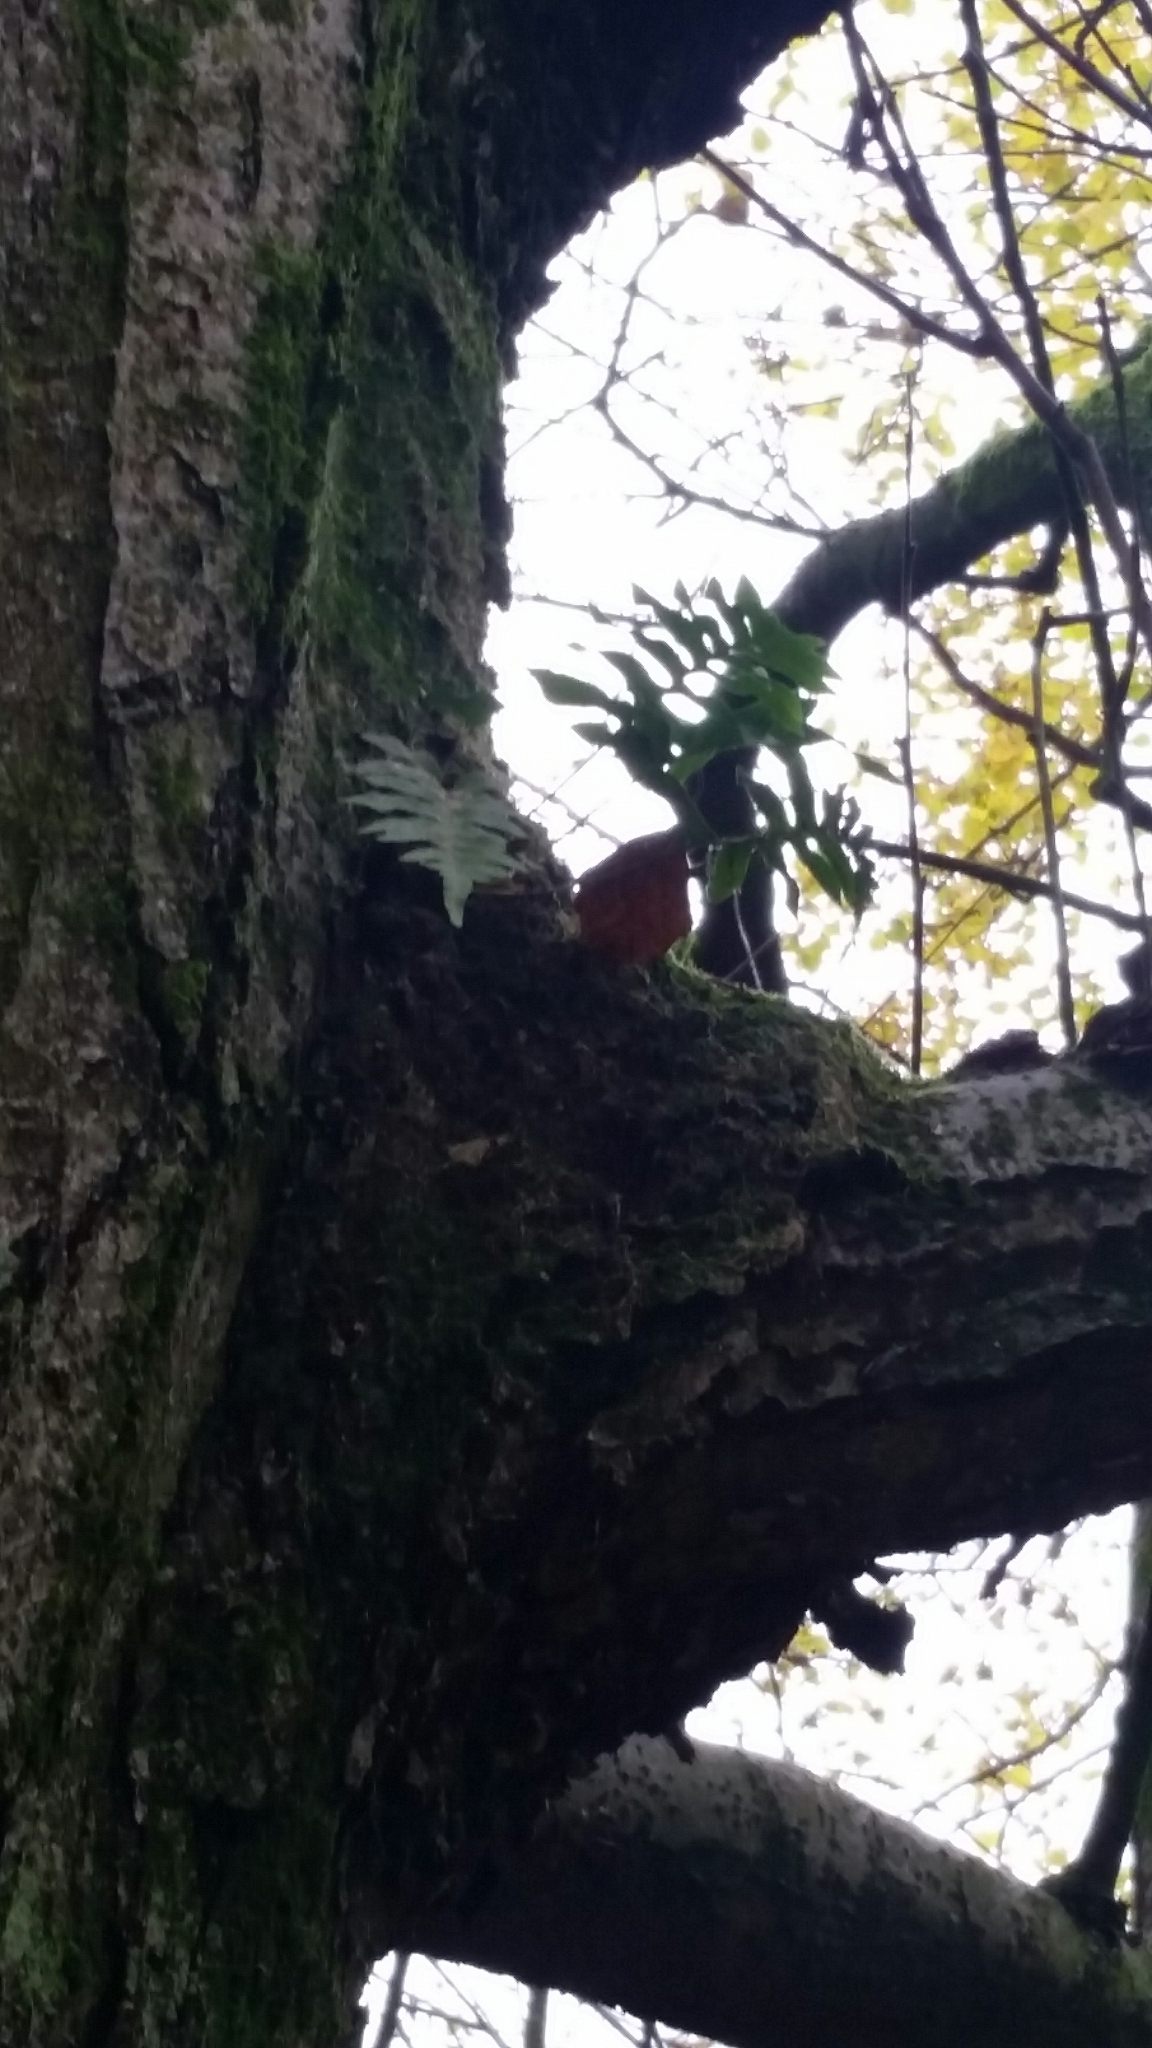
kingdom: Plantae
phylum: Tracheophyta
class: Polypodiopsida
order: Polypodiales
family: Polypodiaceae
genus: Polypodium
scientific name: Polypodium vulgare
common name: Common polypody
